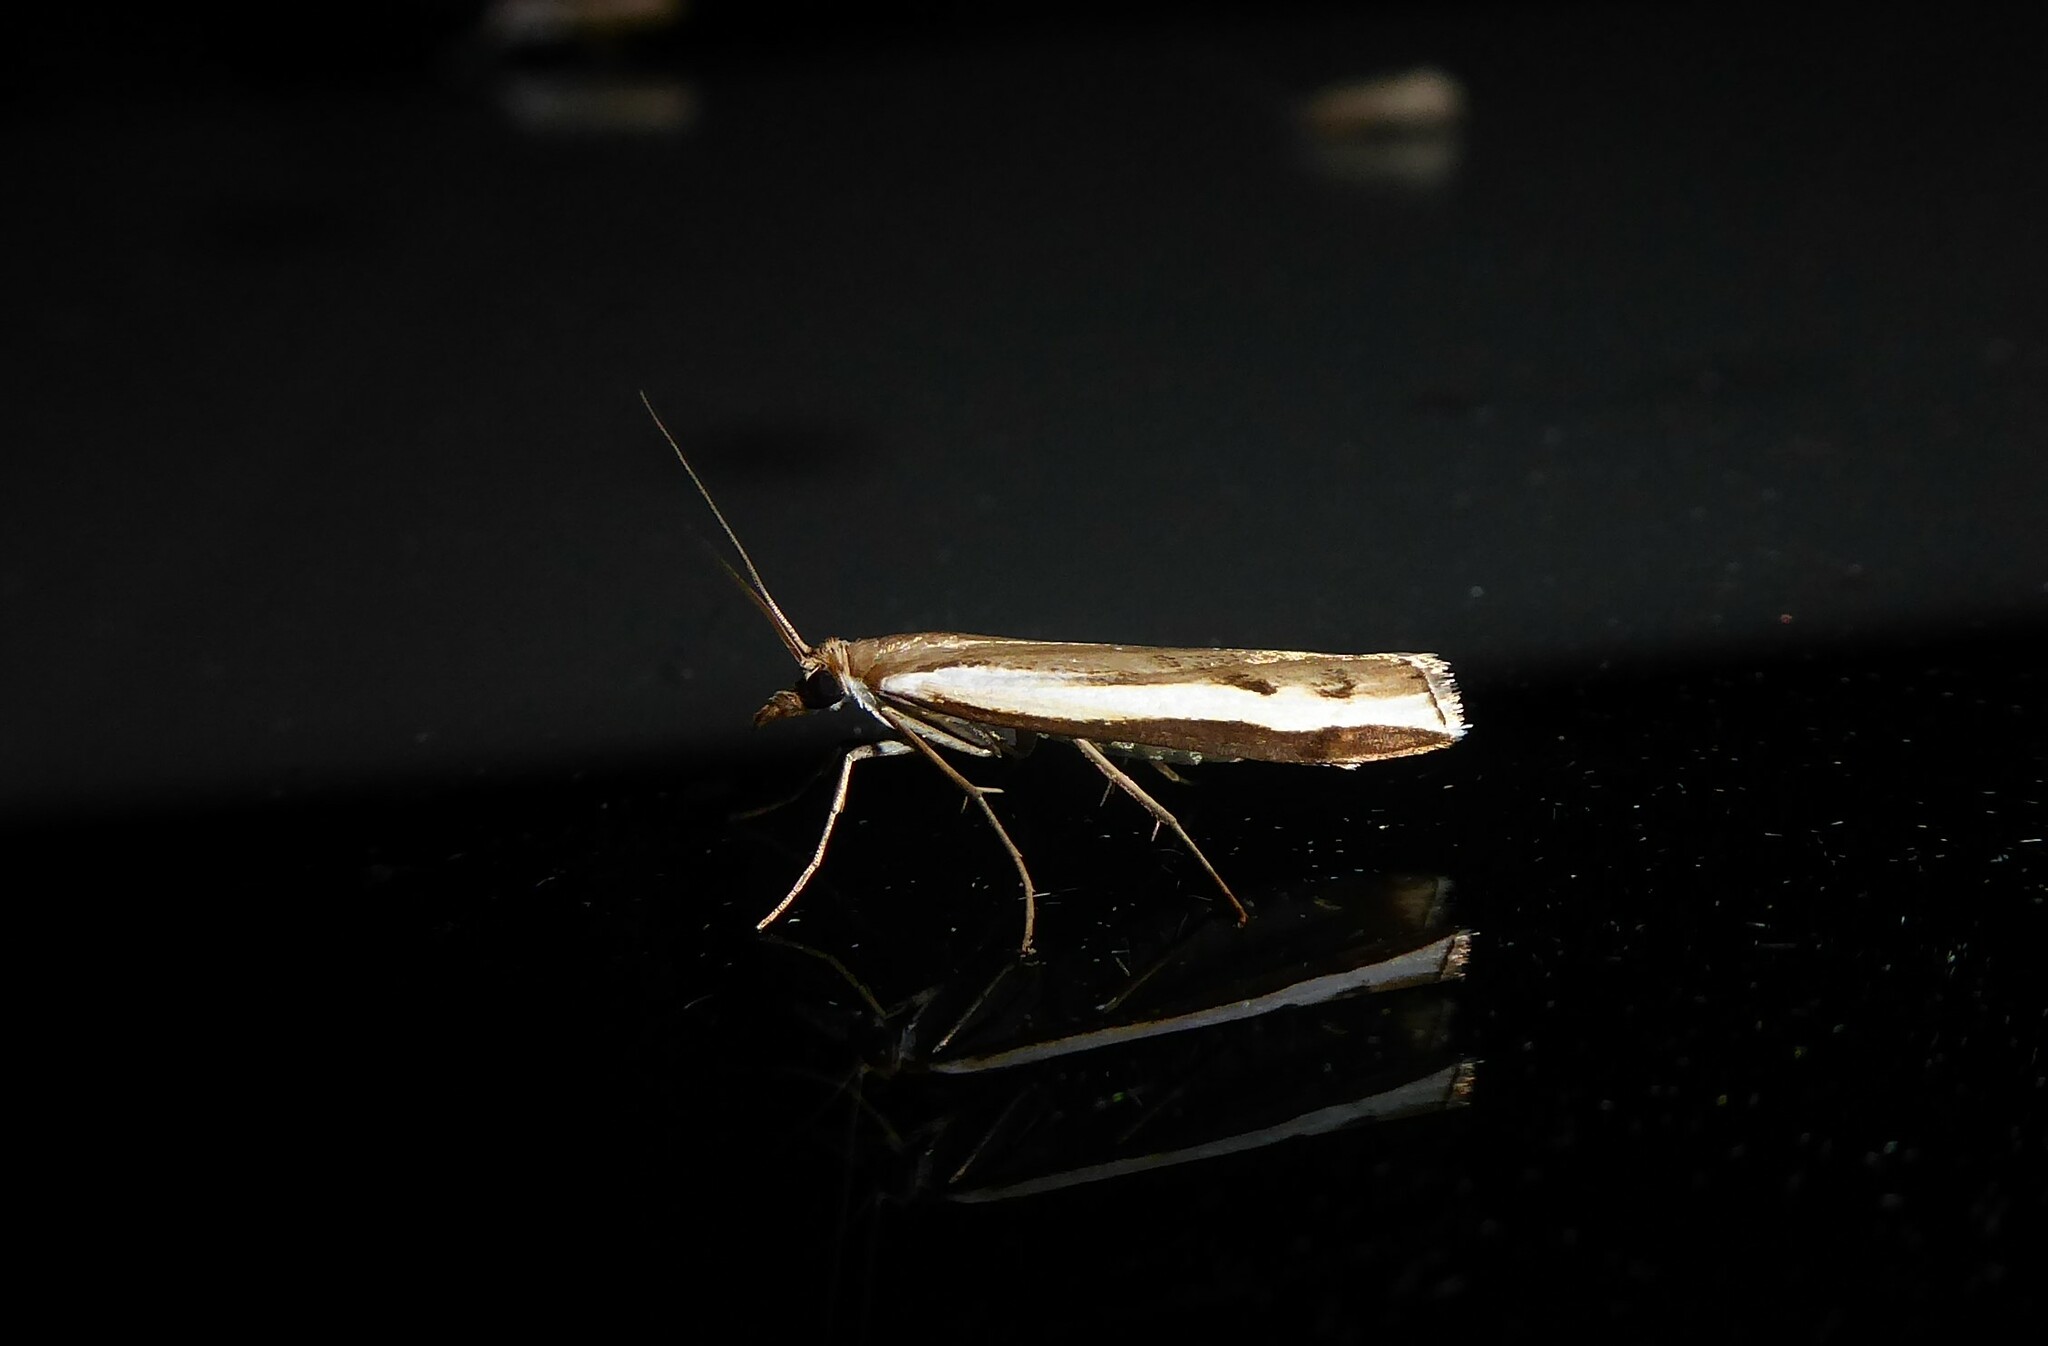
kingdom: Animalia
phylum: Arthropoda
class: Insecta
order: Lepidoptera
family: Crambidae
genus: Orocrambus
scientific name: Orocrambus flexuosellus
